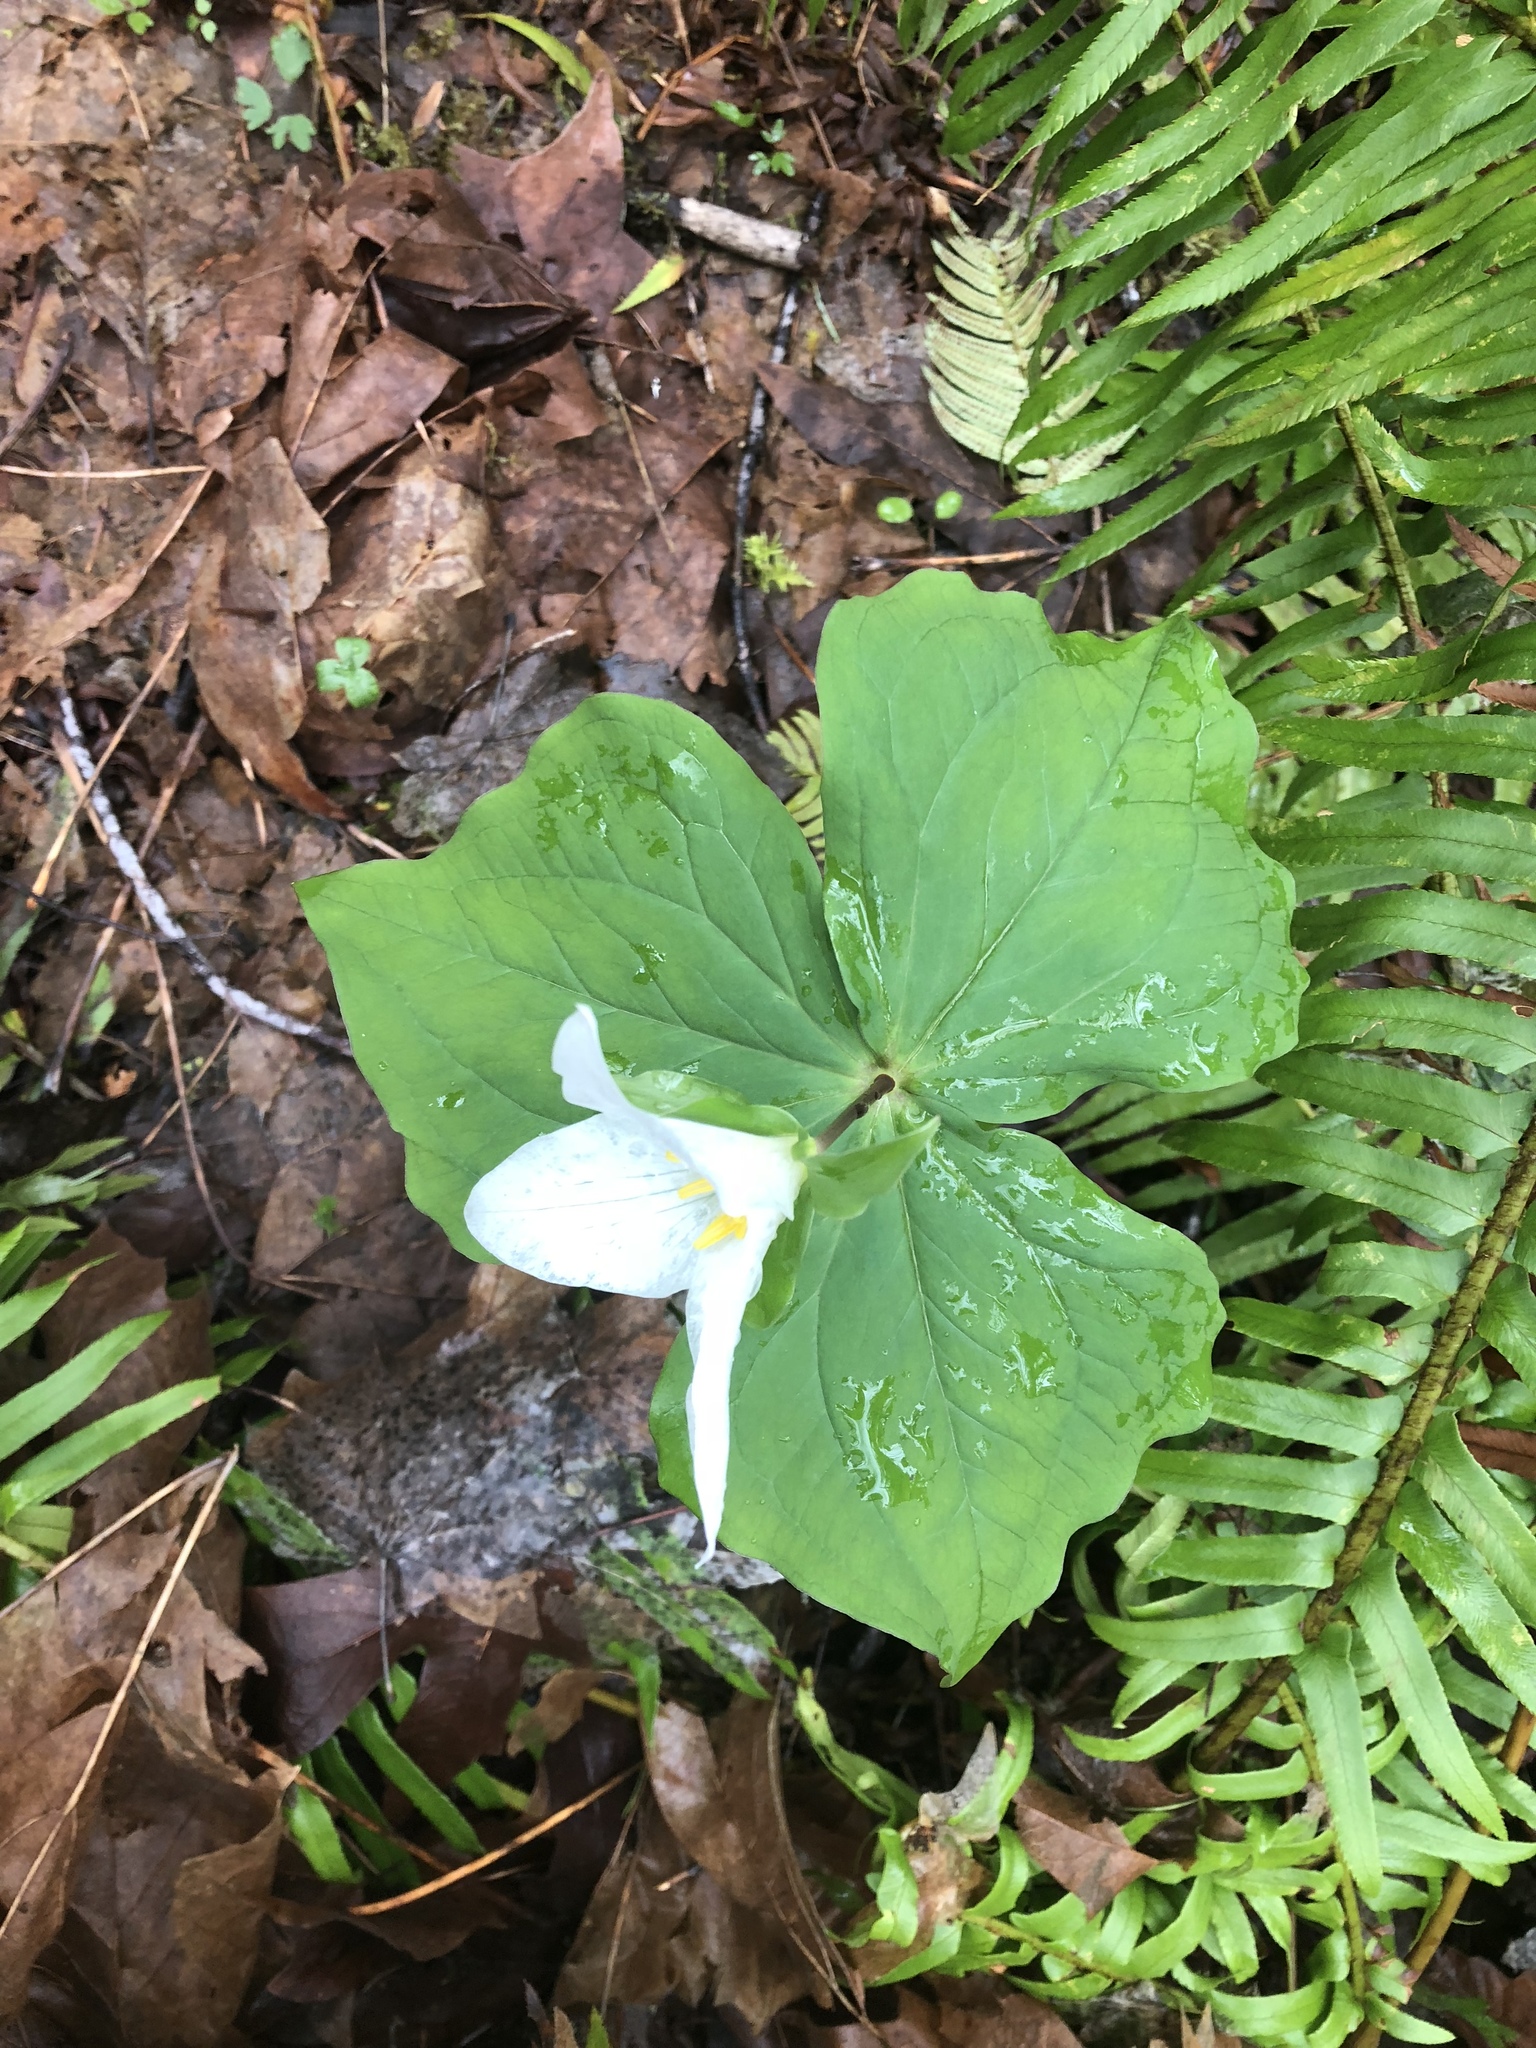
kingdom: Plantae
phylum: Tracheophyta
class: Liliopsida
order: Liliales
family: Melanthiaceae
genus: Trillium
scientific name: Trillium ovatum
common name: Pacific trillium
